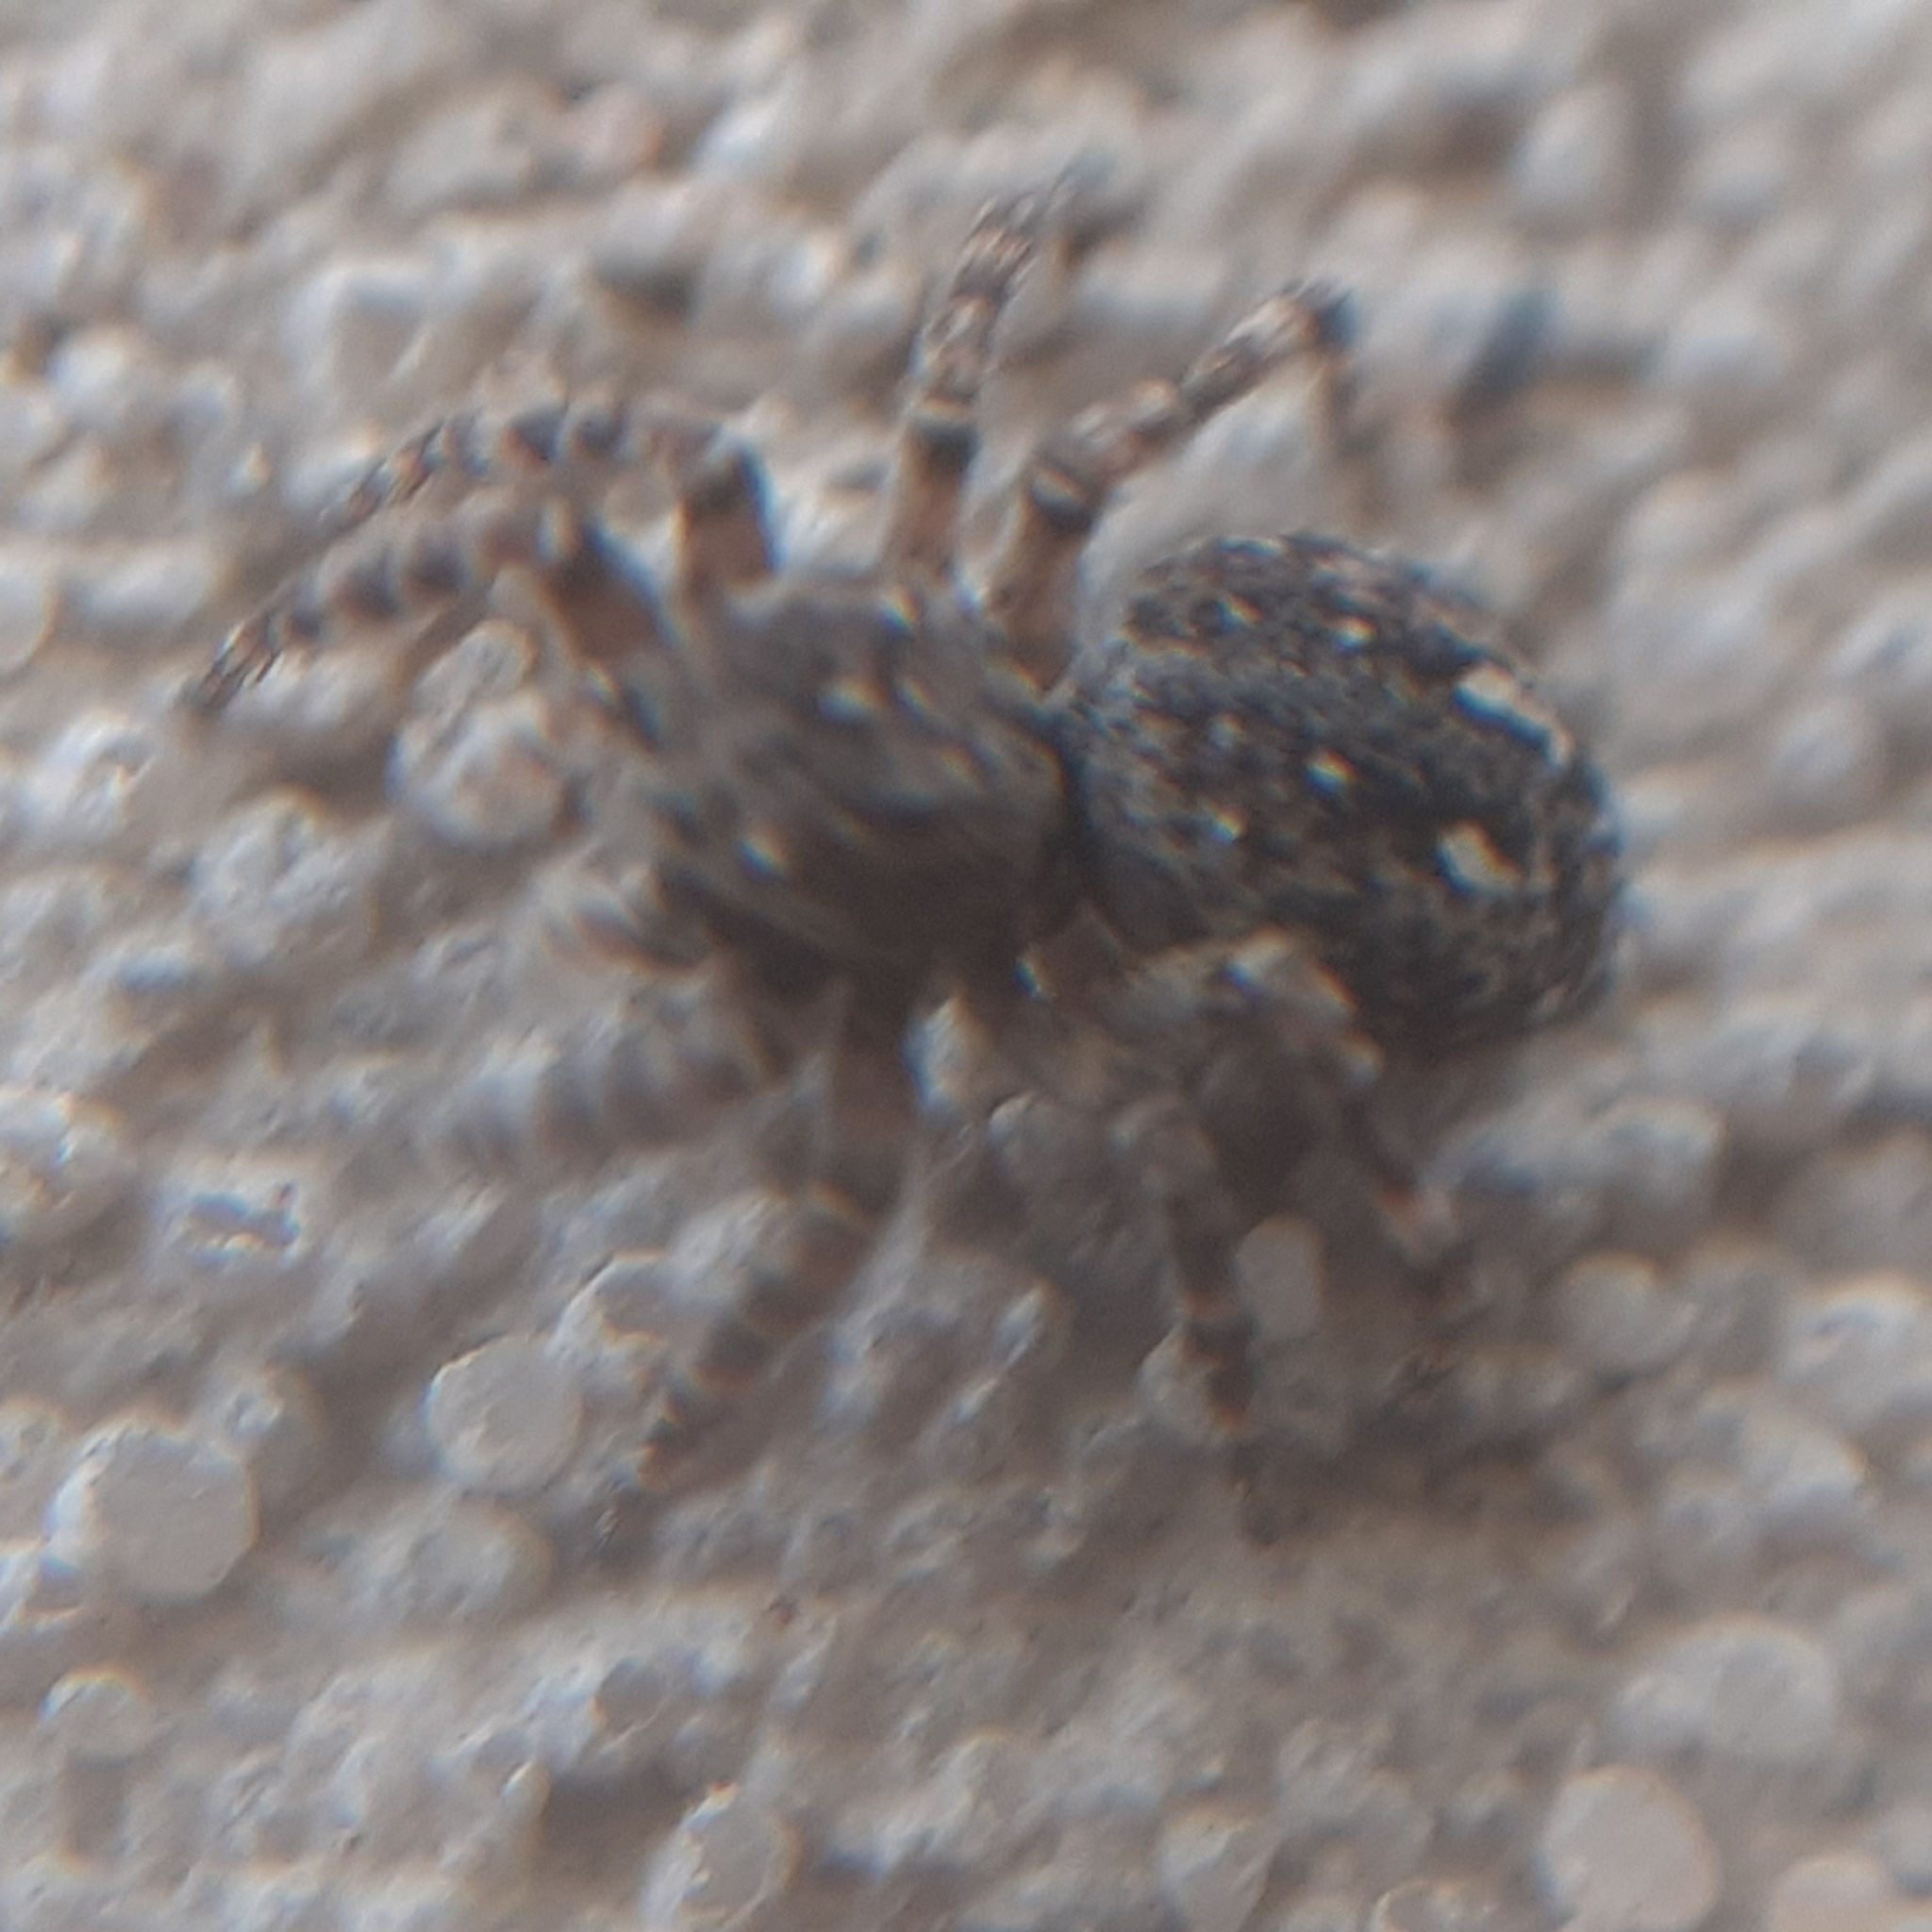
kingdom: Animalia
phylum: Arthropoda
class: Arachnida
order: Araneae
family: Salticidae
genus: Attulus
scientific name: Attulus pubescens
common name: Jumping spider
